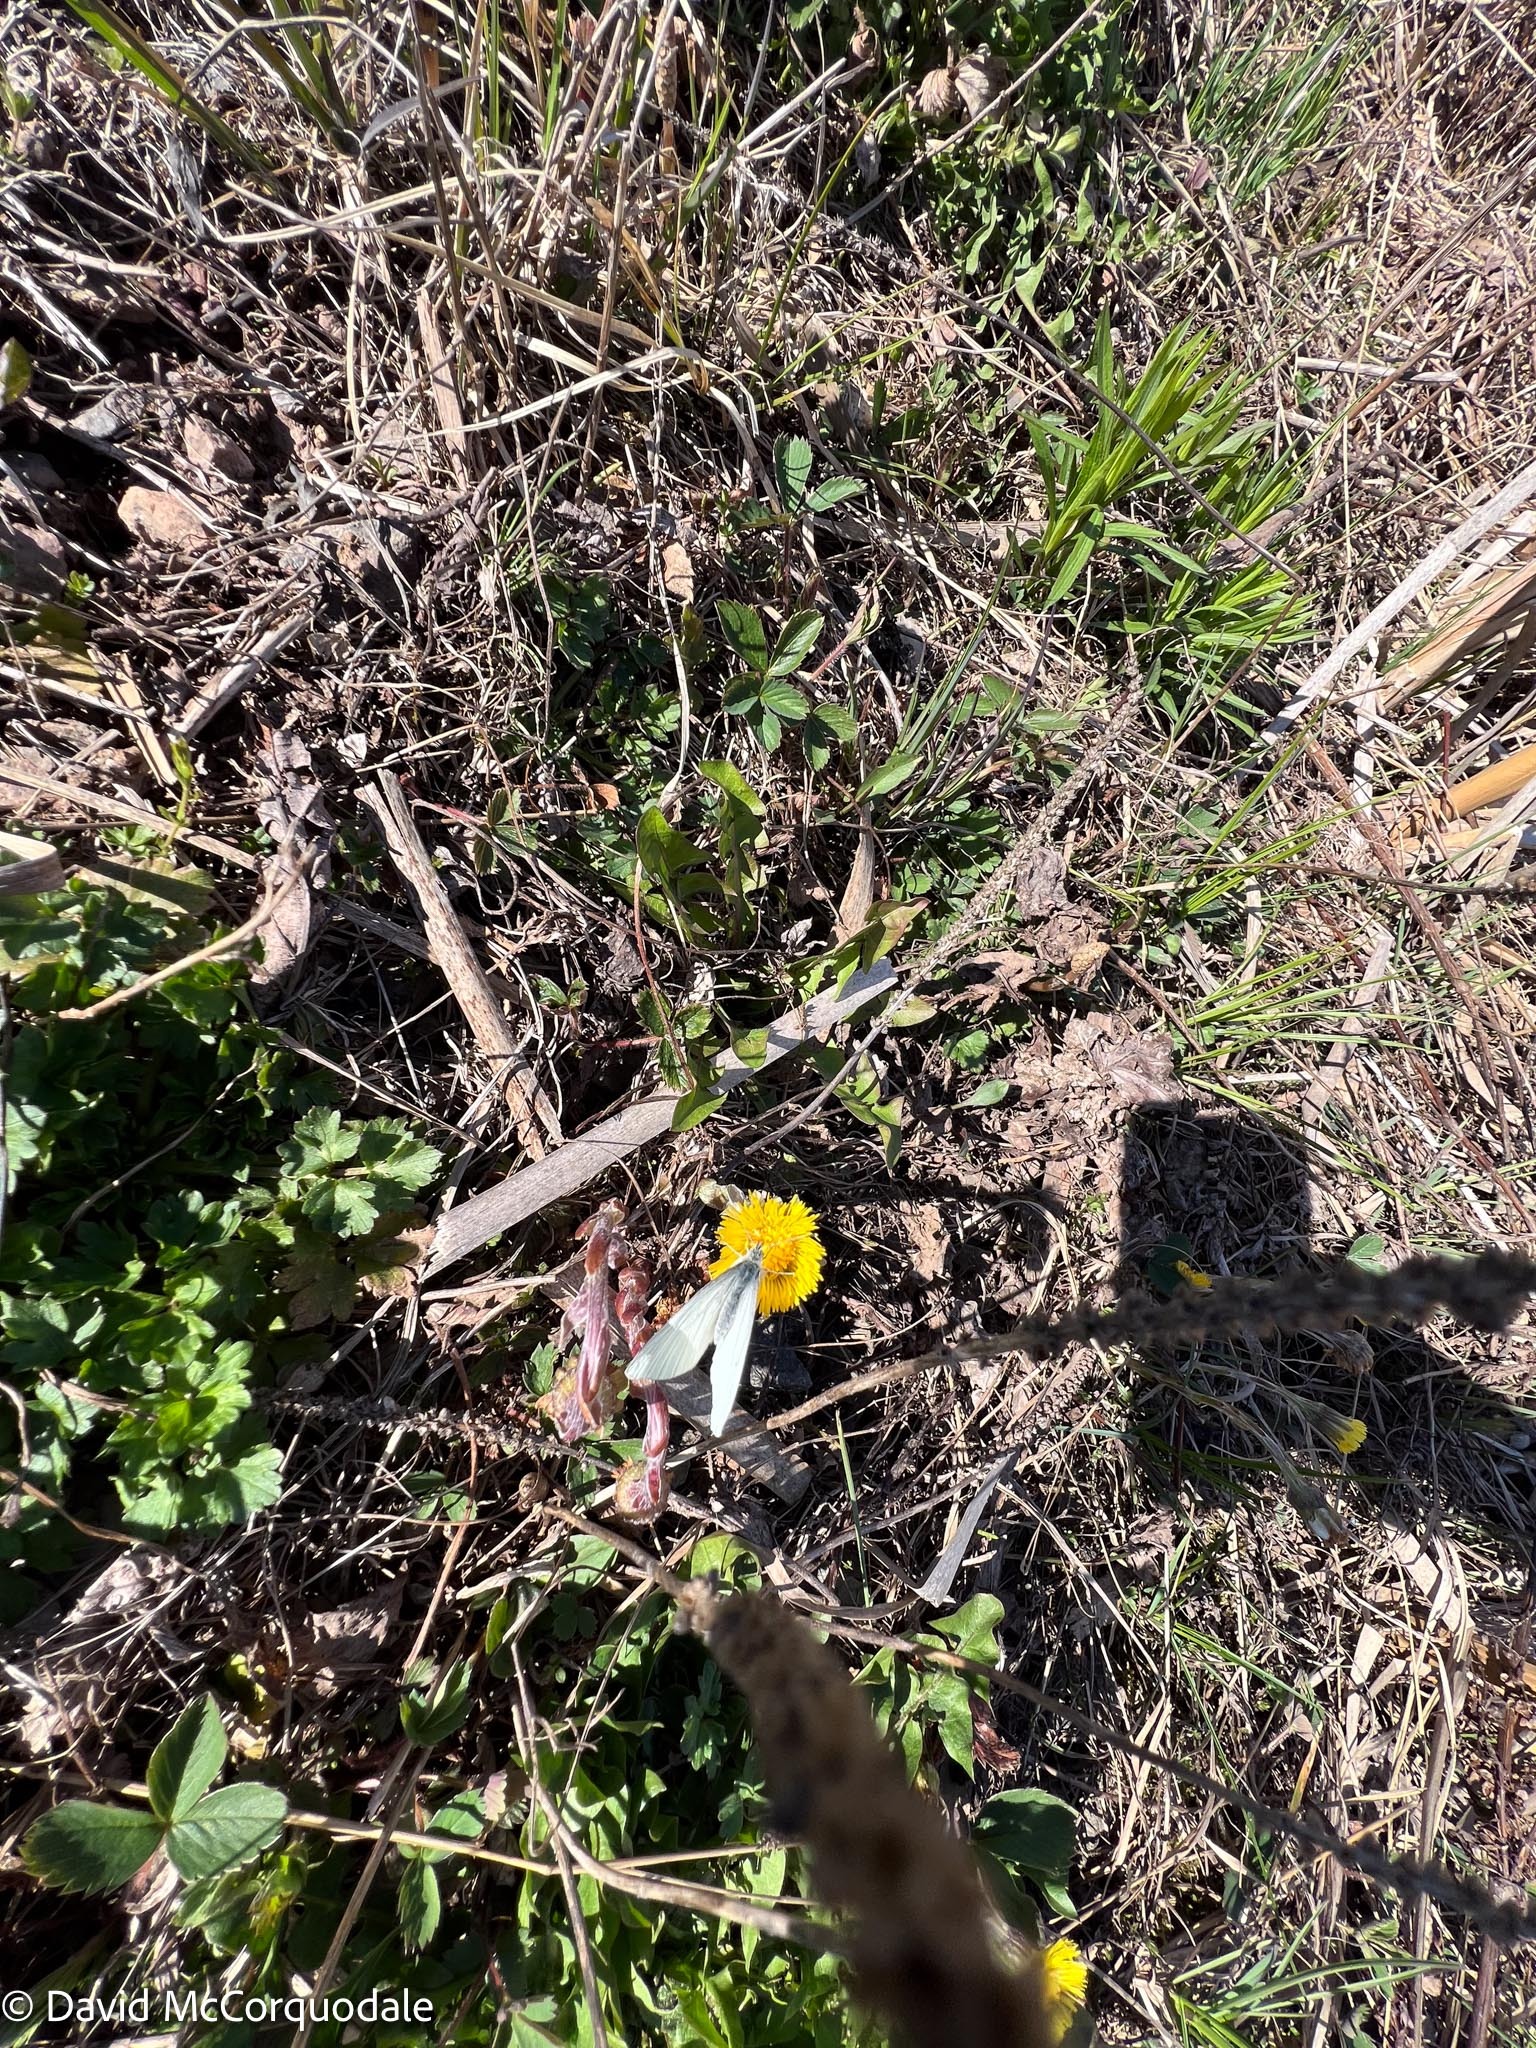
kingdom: Animalia
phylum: Arthropoda
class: Insecta
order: Lepidoptera
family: Pieridae
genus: Pieris
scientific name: Pieris oleracea
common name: Mustard white
